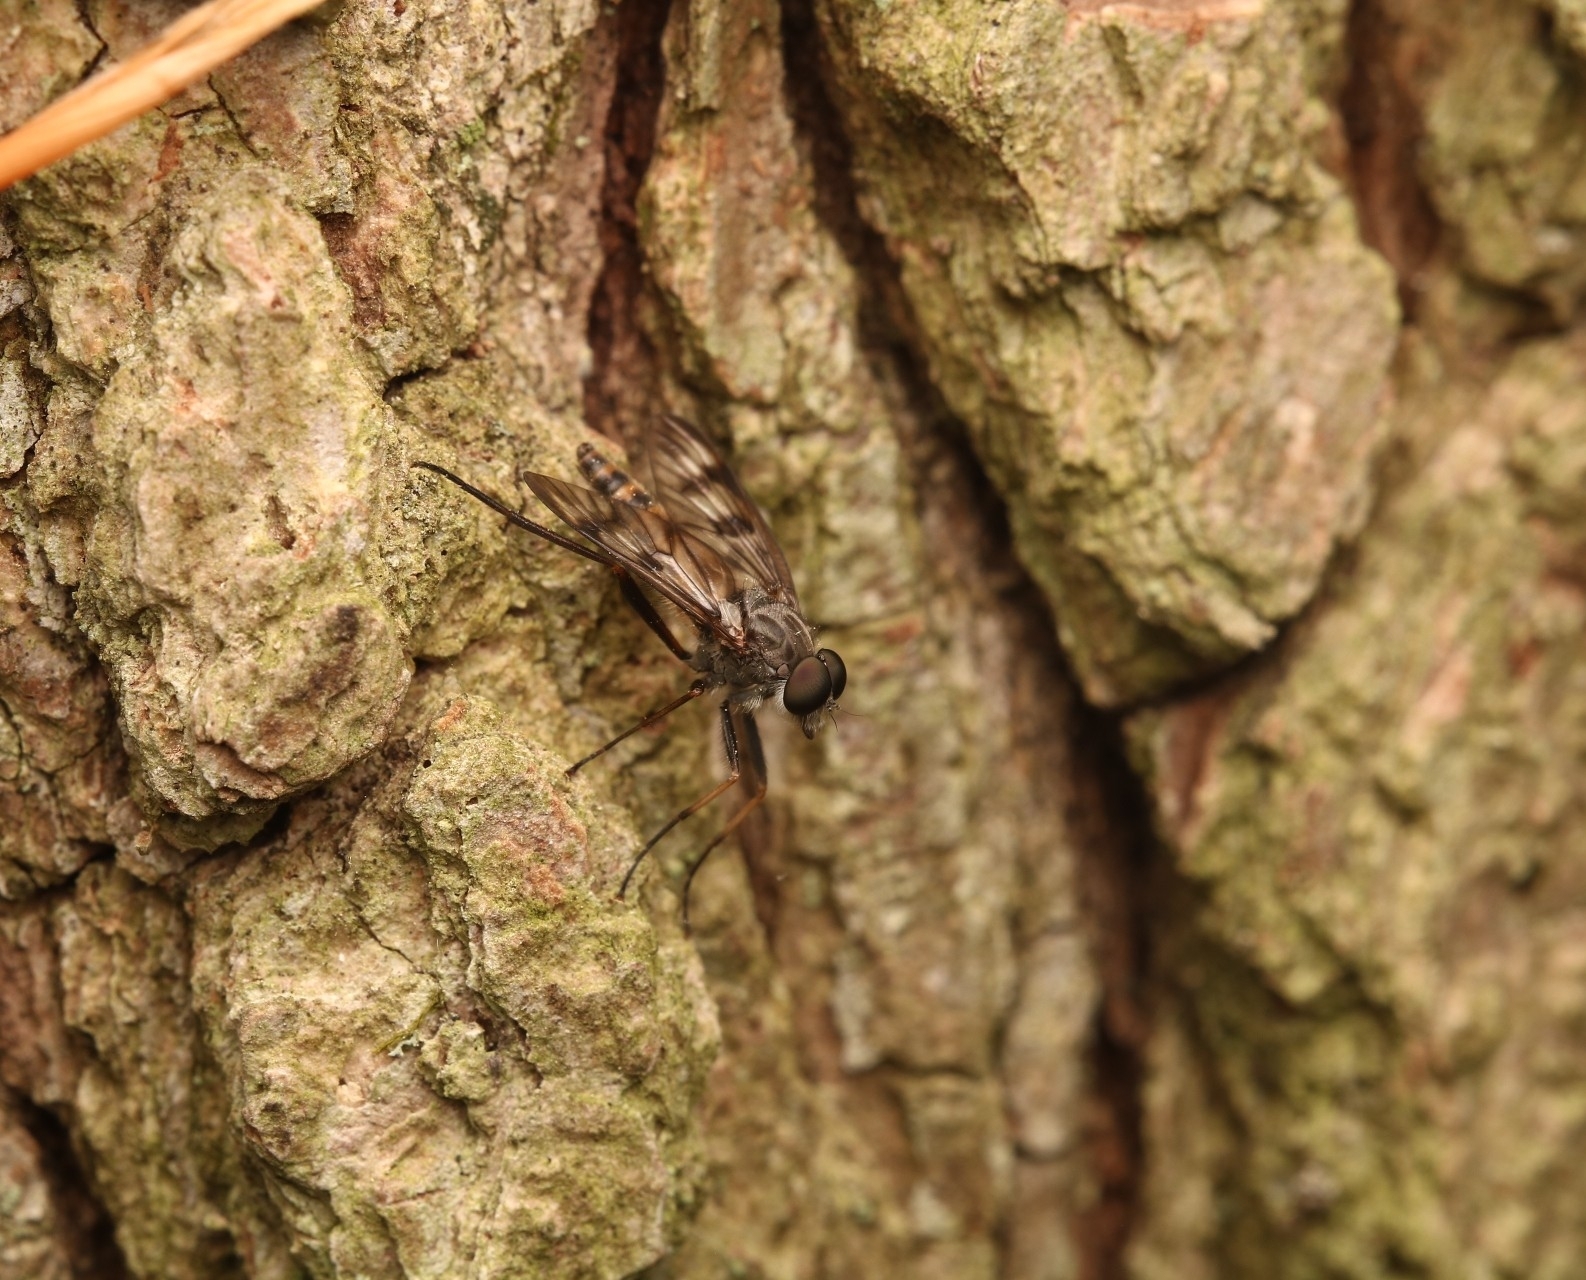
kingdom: Animalia
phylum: Arthropoda
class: Insecta
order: Diptera
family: Rhagionidae
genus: Rhagio
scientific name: Rhagio mystaceus
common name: Common snipe fly
